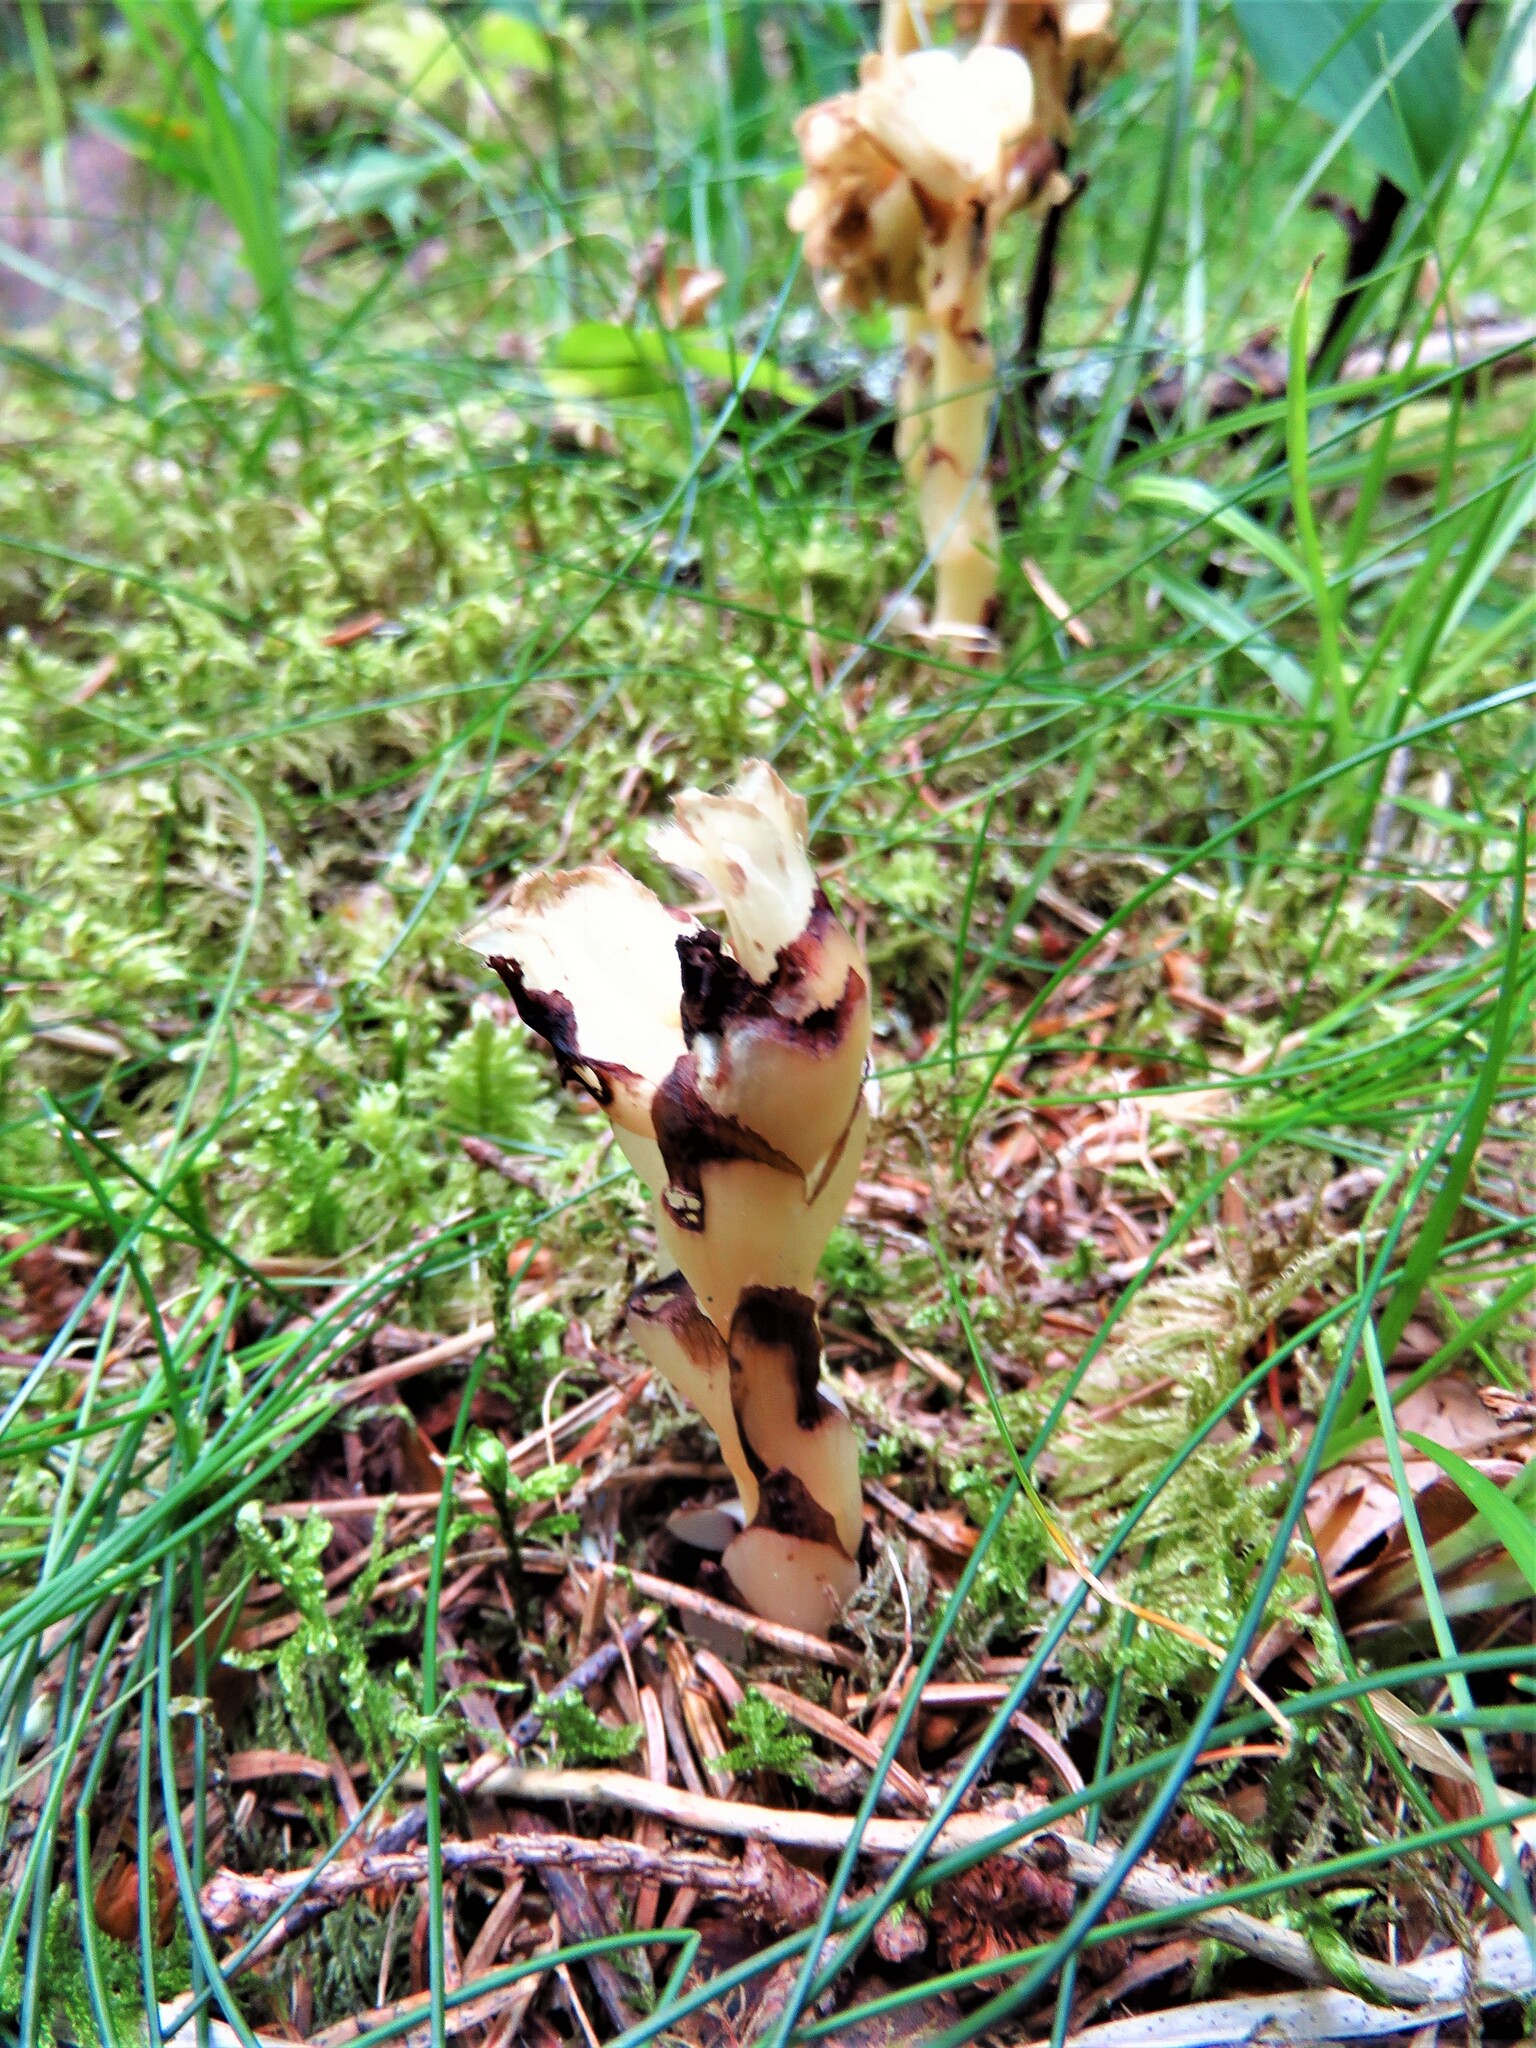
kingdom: Plantae
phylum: Tracheophyta
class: Magnoliopsida
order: Ericales
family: Ericaceae
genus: Hypopitys
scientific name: Hypopitys monotropa
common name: Yellow bird's-nest
